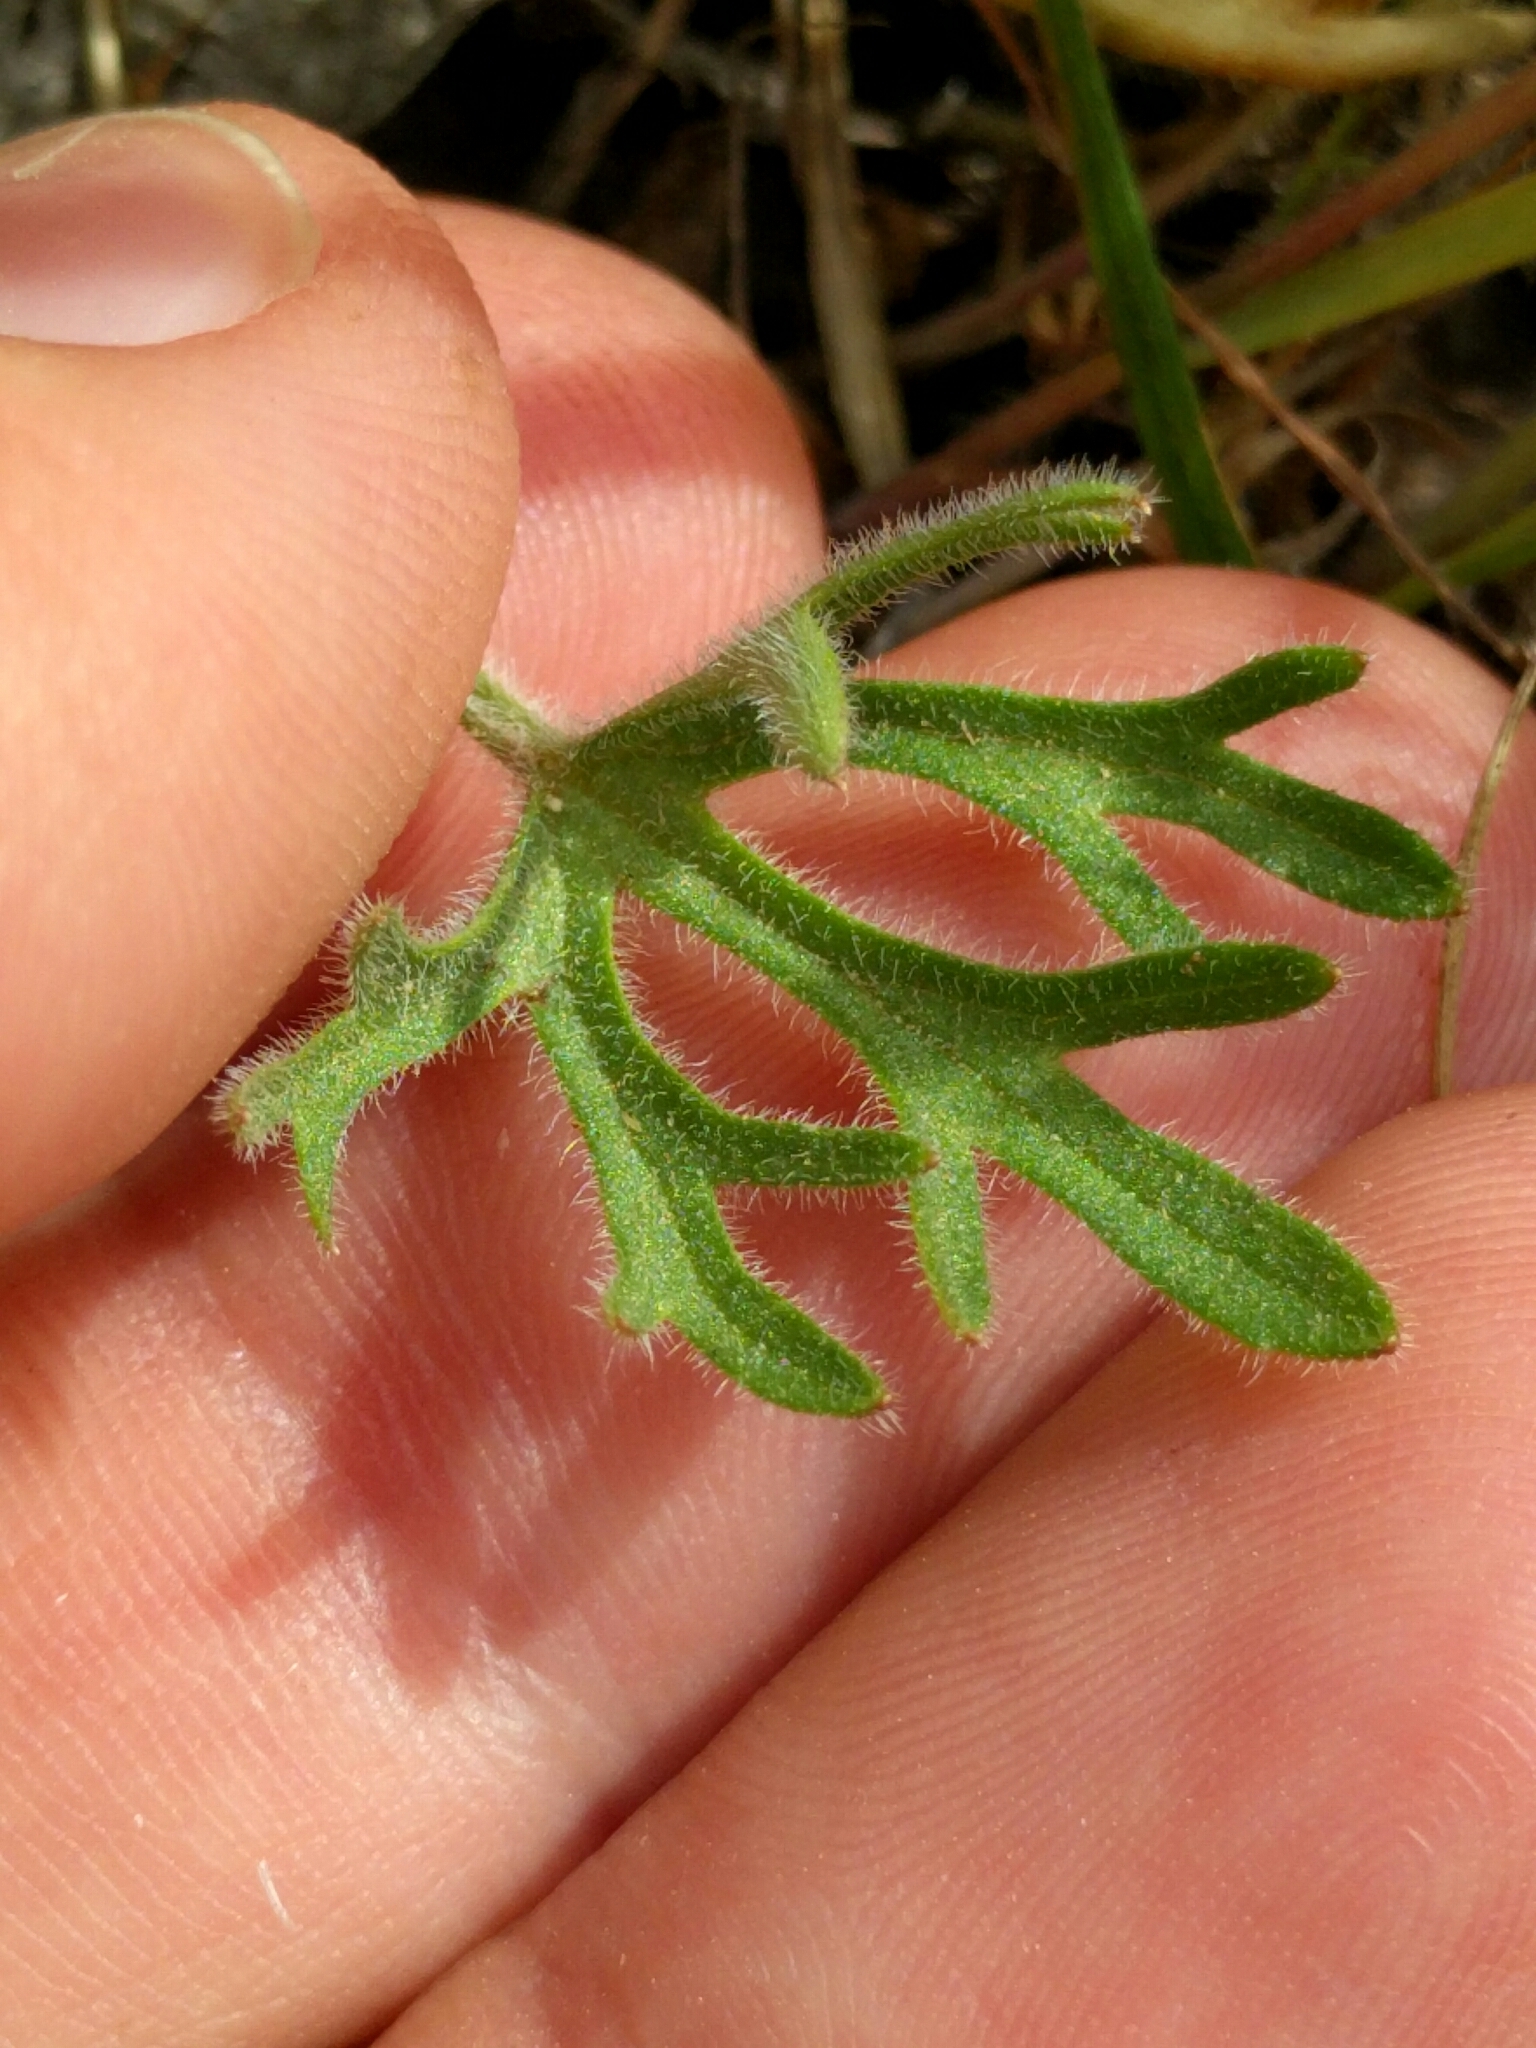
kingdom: Plantae
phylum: Tracheophyta
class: Magnoliopsida
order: Ranunculales
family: Ranunculaceae
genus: Delphinium
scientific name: Delphinium variegatum
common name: Royal larkspur
